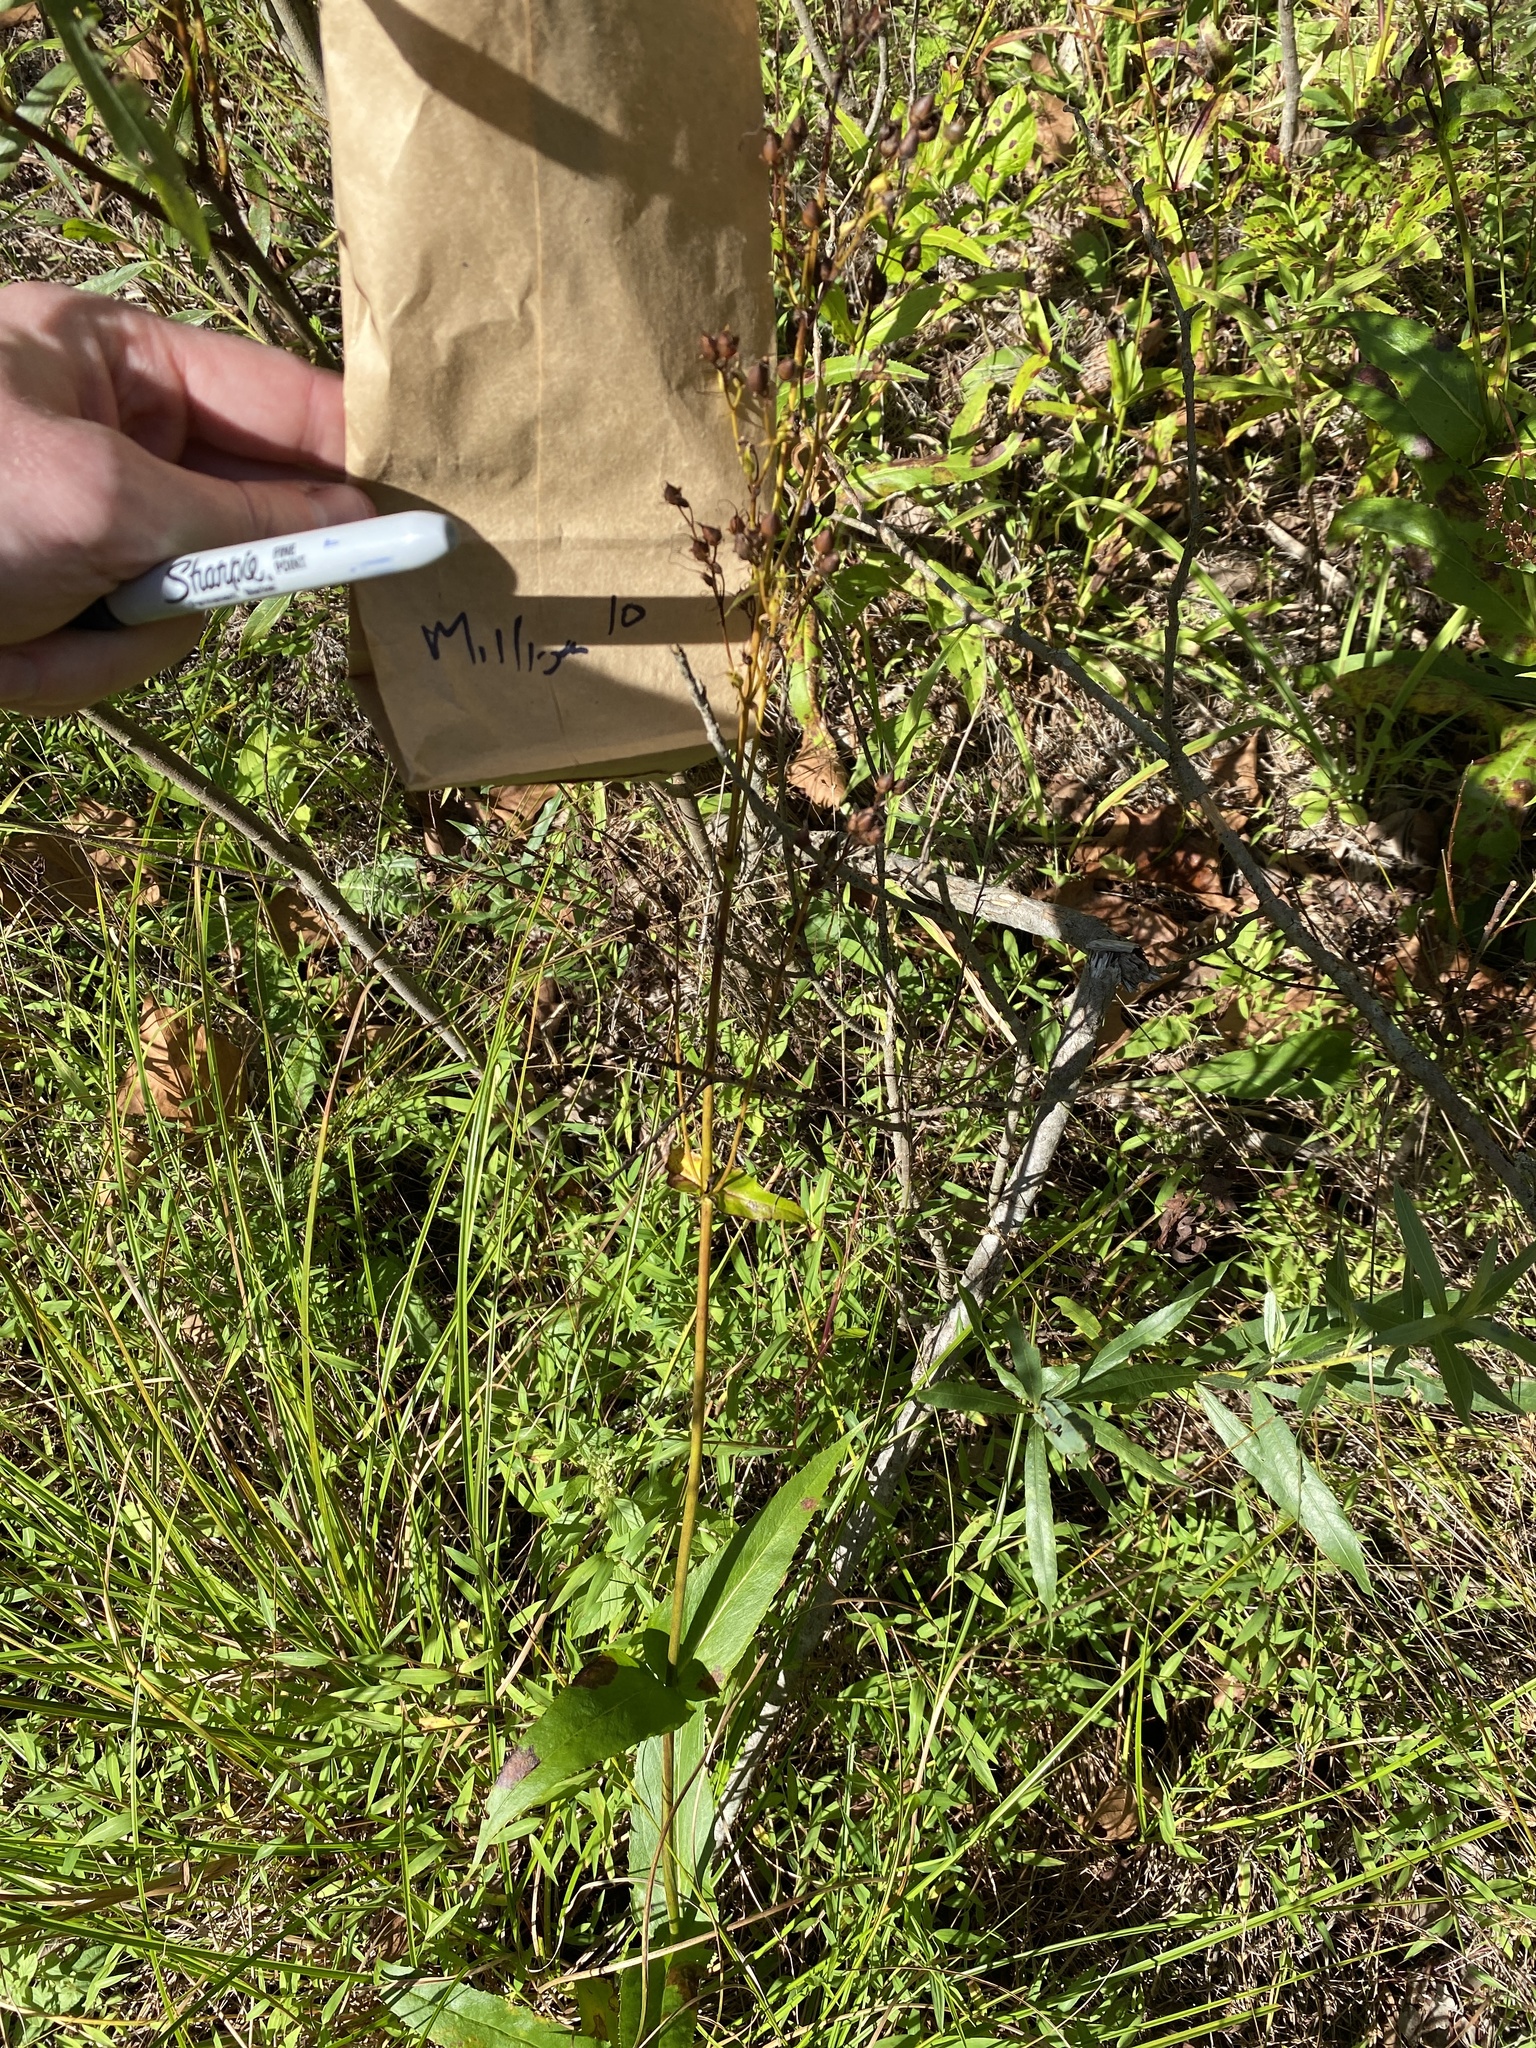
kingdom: Plantae
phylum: Tracheophyta
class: Magnoliopsida
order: Lamiales
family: Plantaginaceae
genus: Penstemon
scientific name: Penstemon digitalis
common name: Foxglove beardtongue
